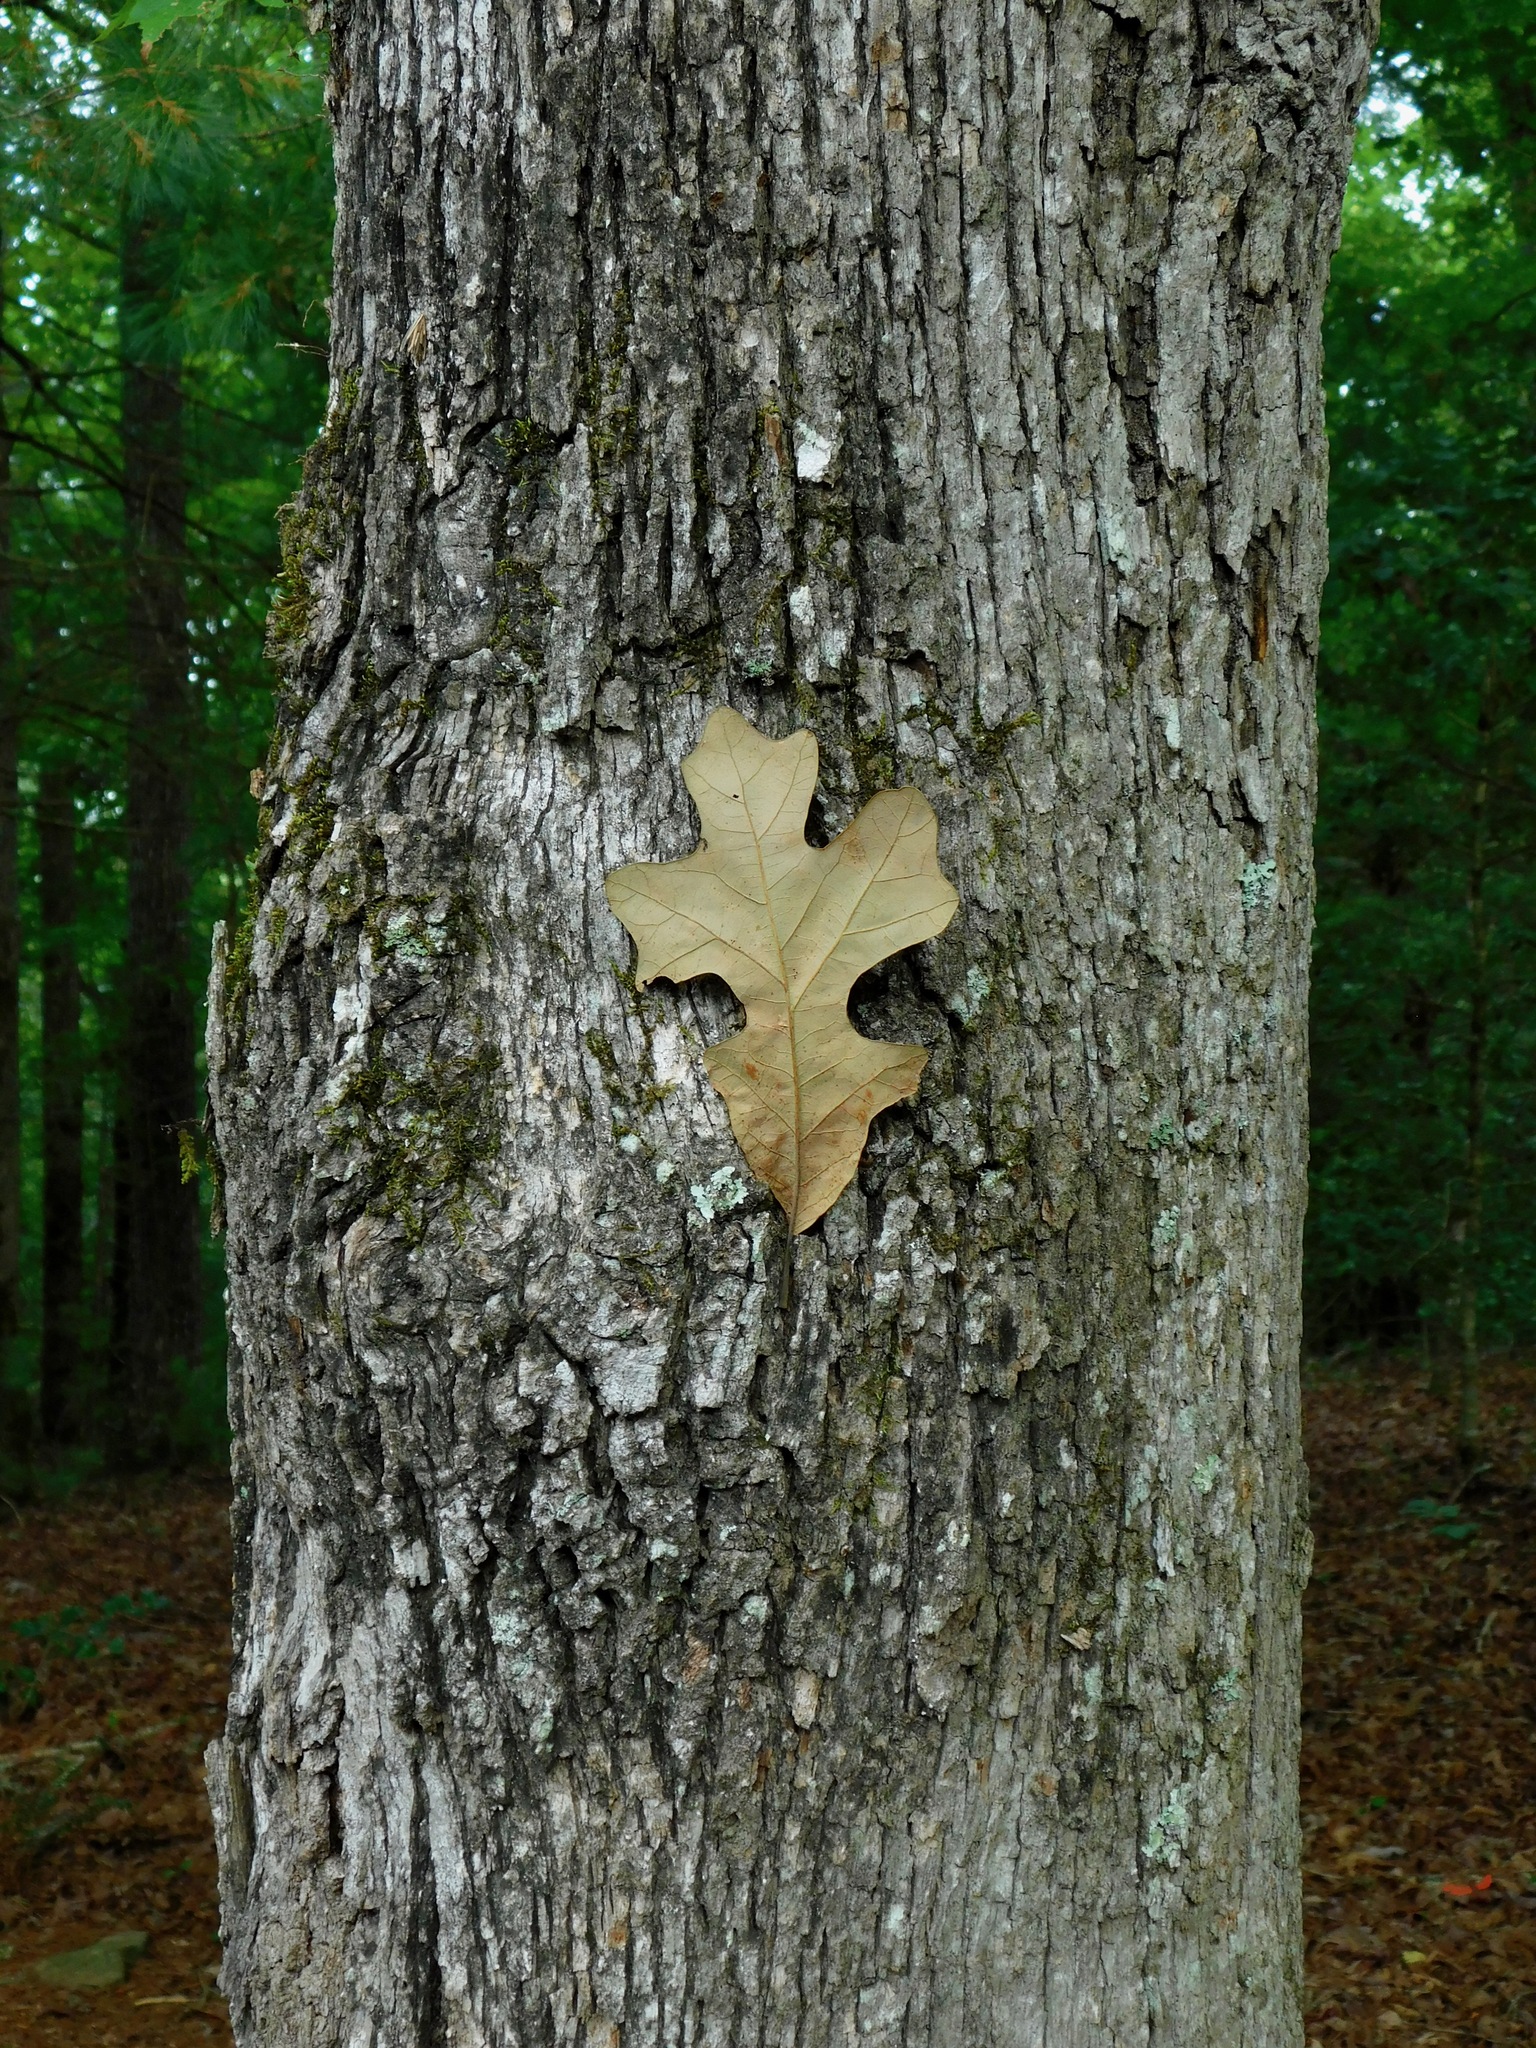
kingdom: Plantae
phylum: Tracheophyta
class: Magnoliopsida
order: Fagales
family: Fagaceae
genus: Quercus
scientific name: Quercus stellata
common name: Post oak
